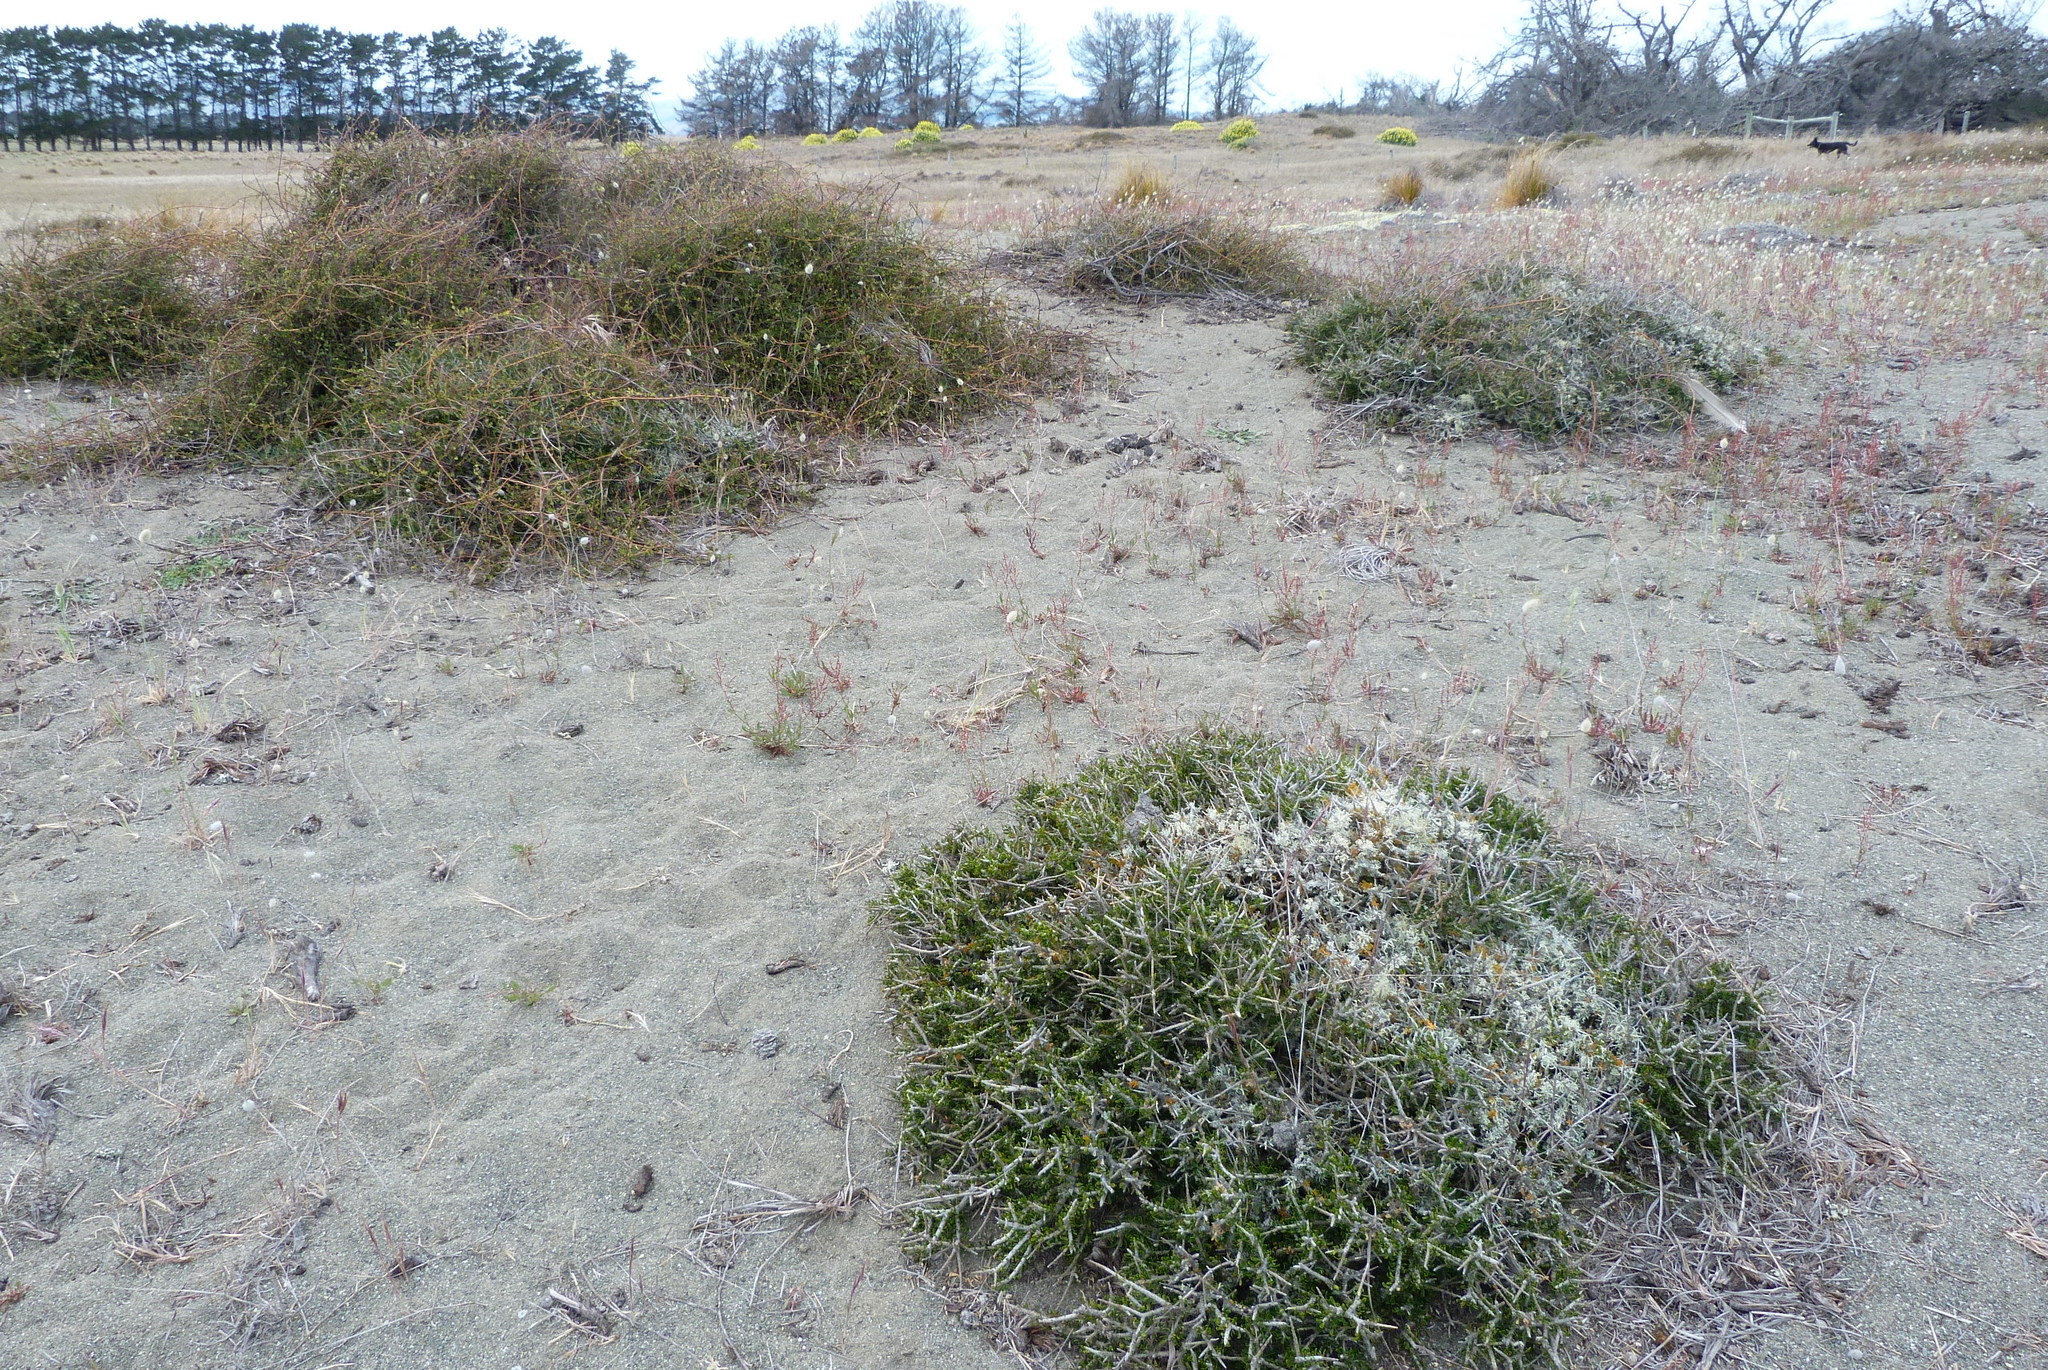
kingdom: Plantae
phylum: Tracheophyta
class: Magnoliopsida
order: Malpighiales
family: Violaceae
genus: Melicytus
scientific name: Melicytus alpinus
